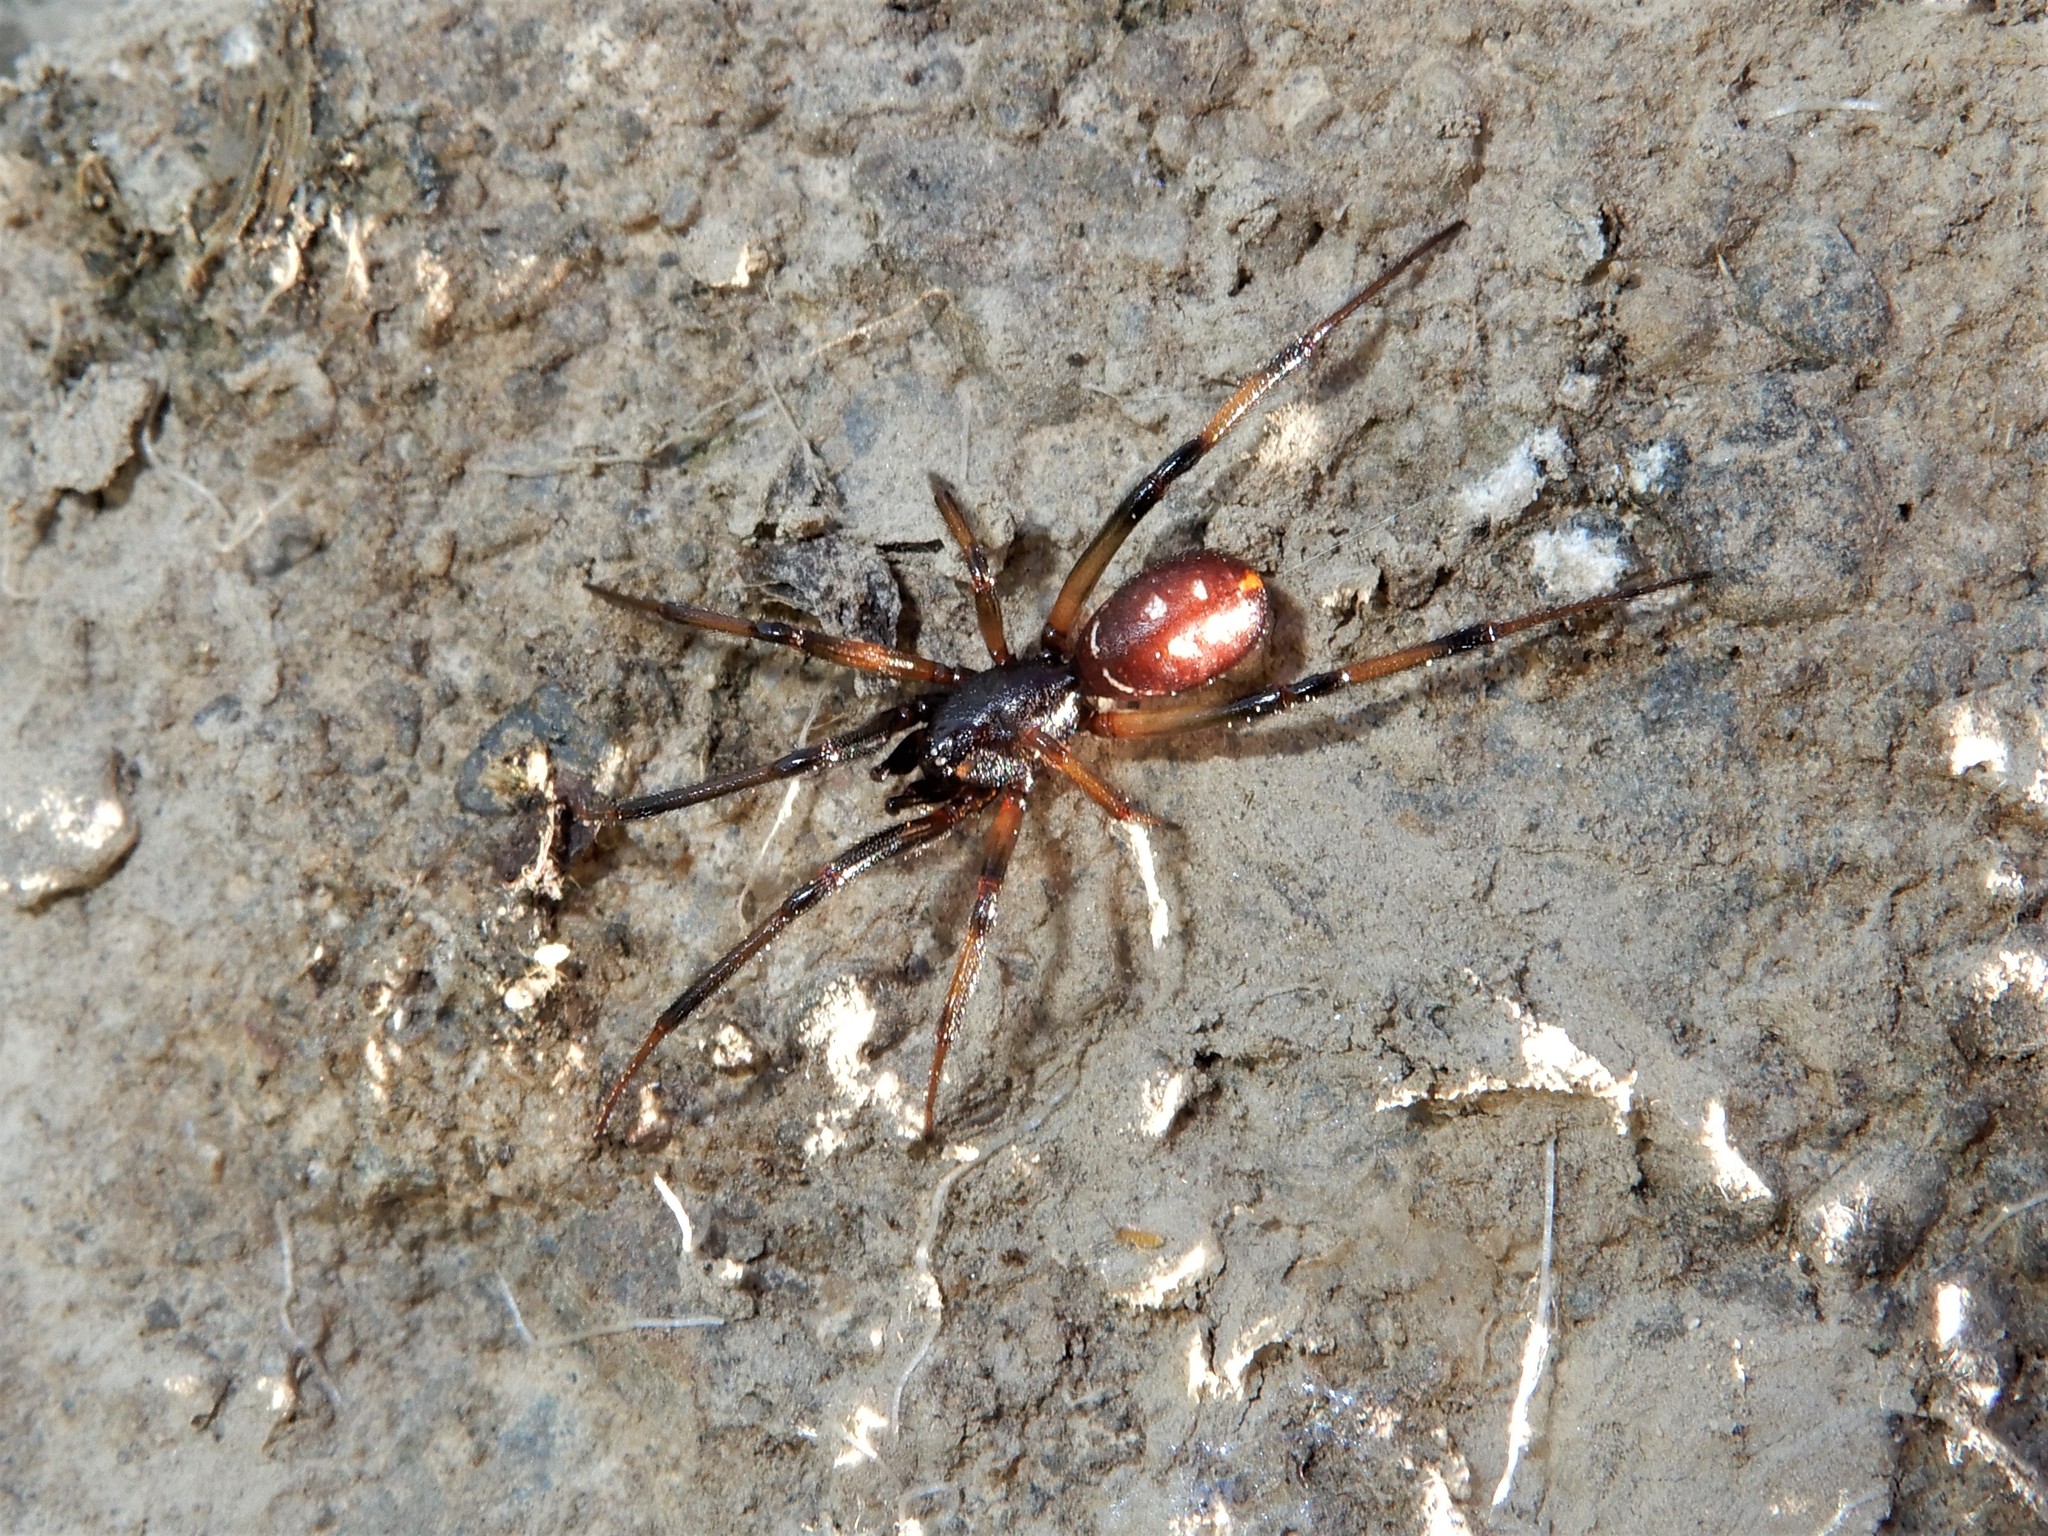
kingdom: Animalia
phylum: Arthropoda
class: Arachnida
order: Araneae
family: Theridiidae
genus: Steatoda
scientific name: Steatoda capensis
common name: Cobweb weaver
